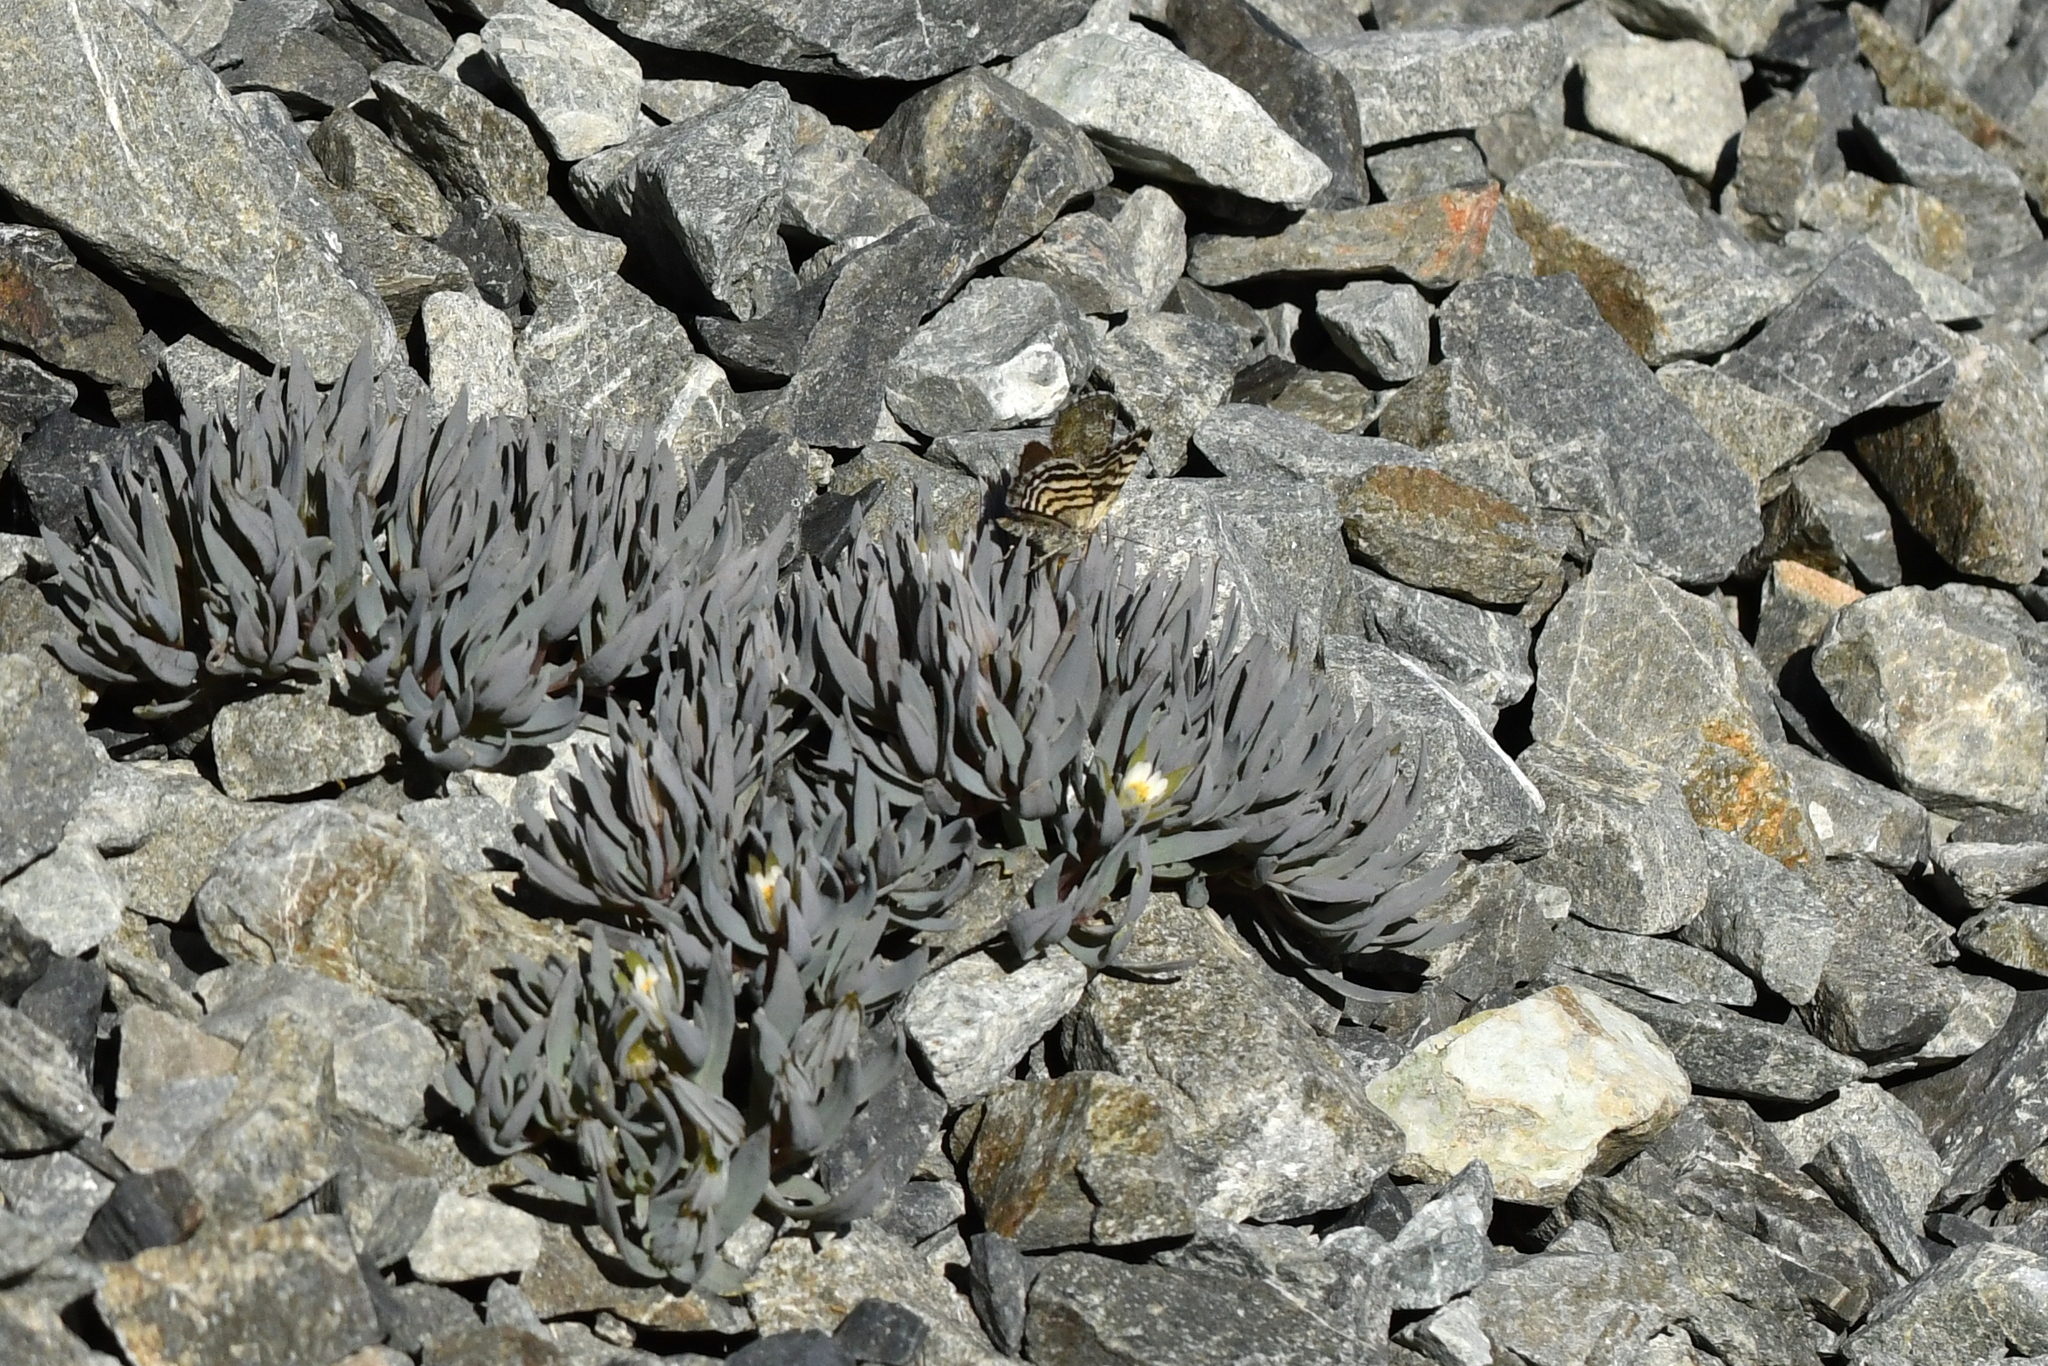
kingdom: Plantae
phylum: Tracheophyta
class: Magnoliopsida
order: Caryophyllales
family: Caryophyllaceae
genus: Stellaria
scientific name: Stellaria roughii
